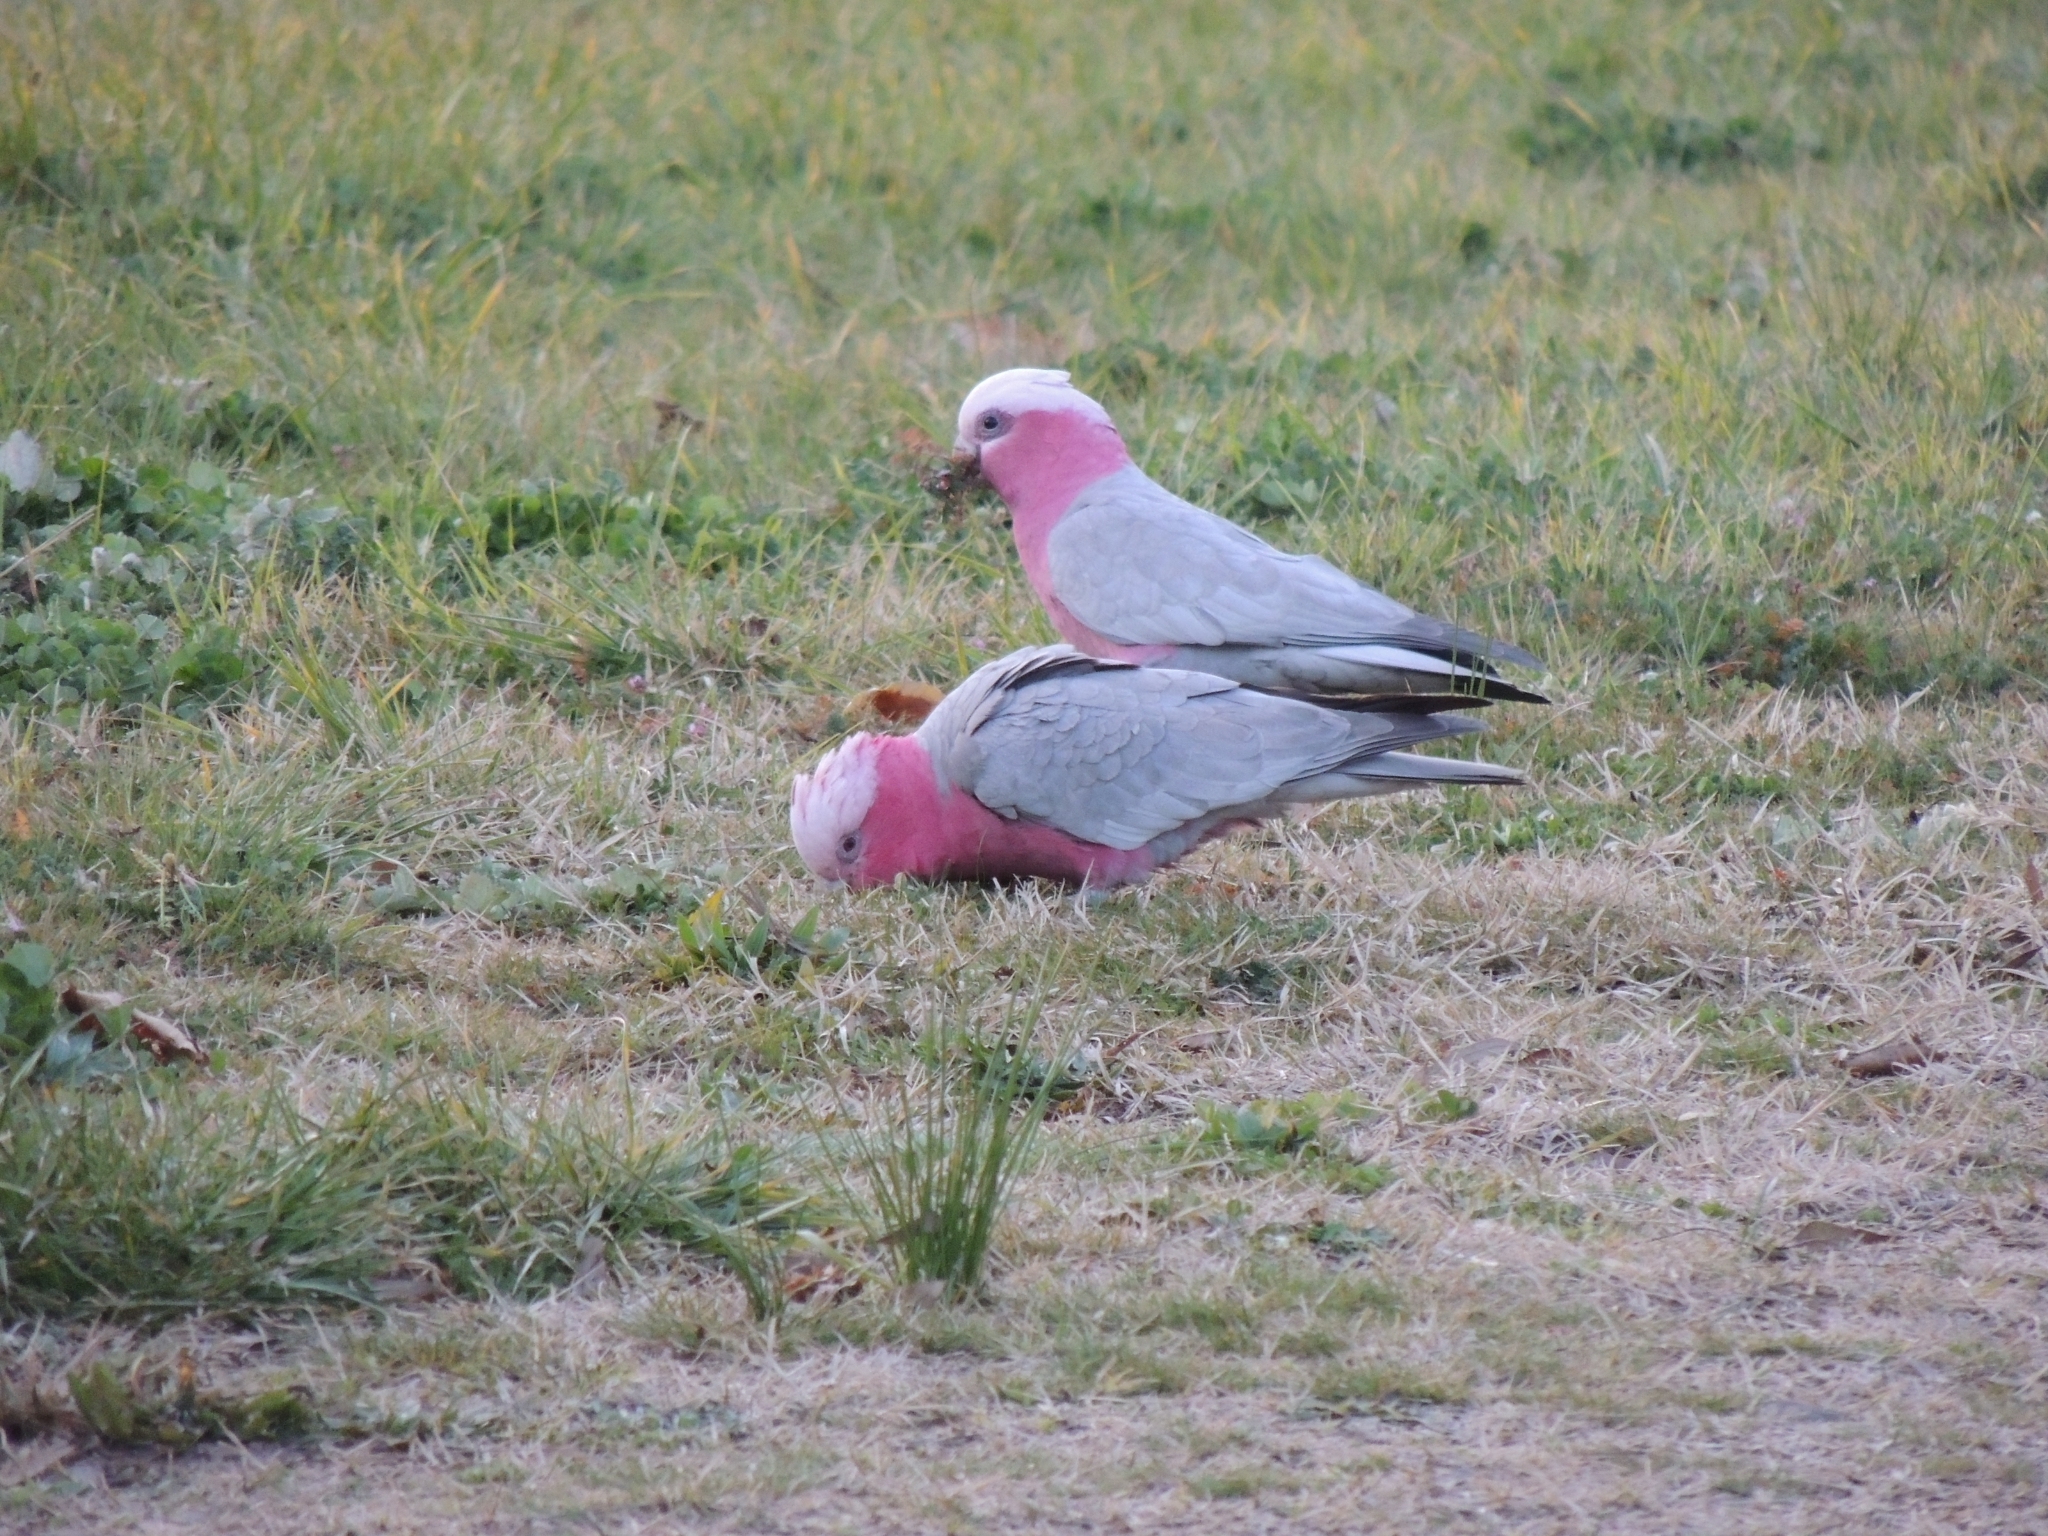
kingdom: Animalia
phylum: Chordata
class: Aves
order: Psittaciformes
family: Psittacidae
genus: Eolophus
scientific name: Eolophus roseicapilla
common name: Galah
